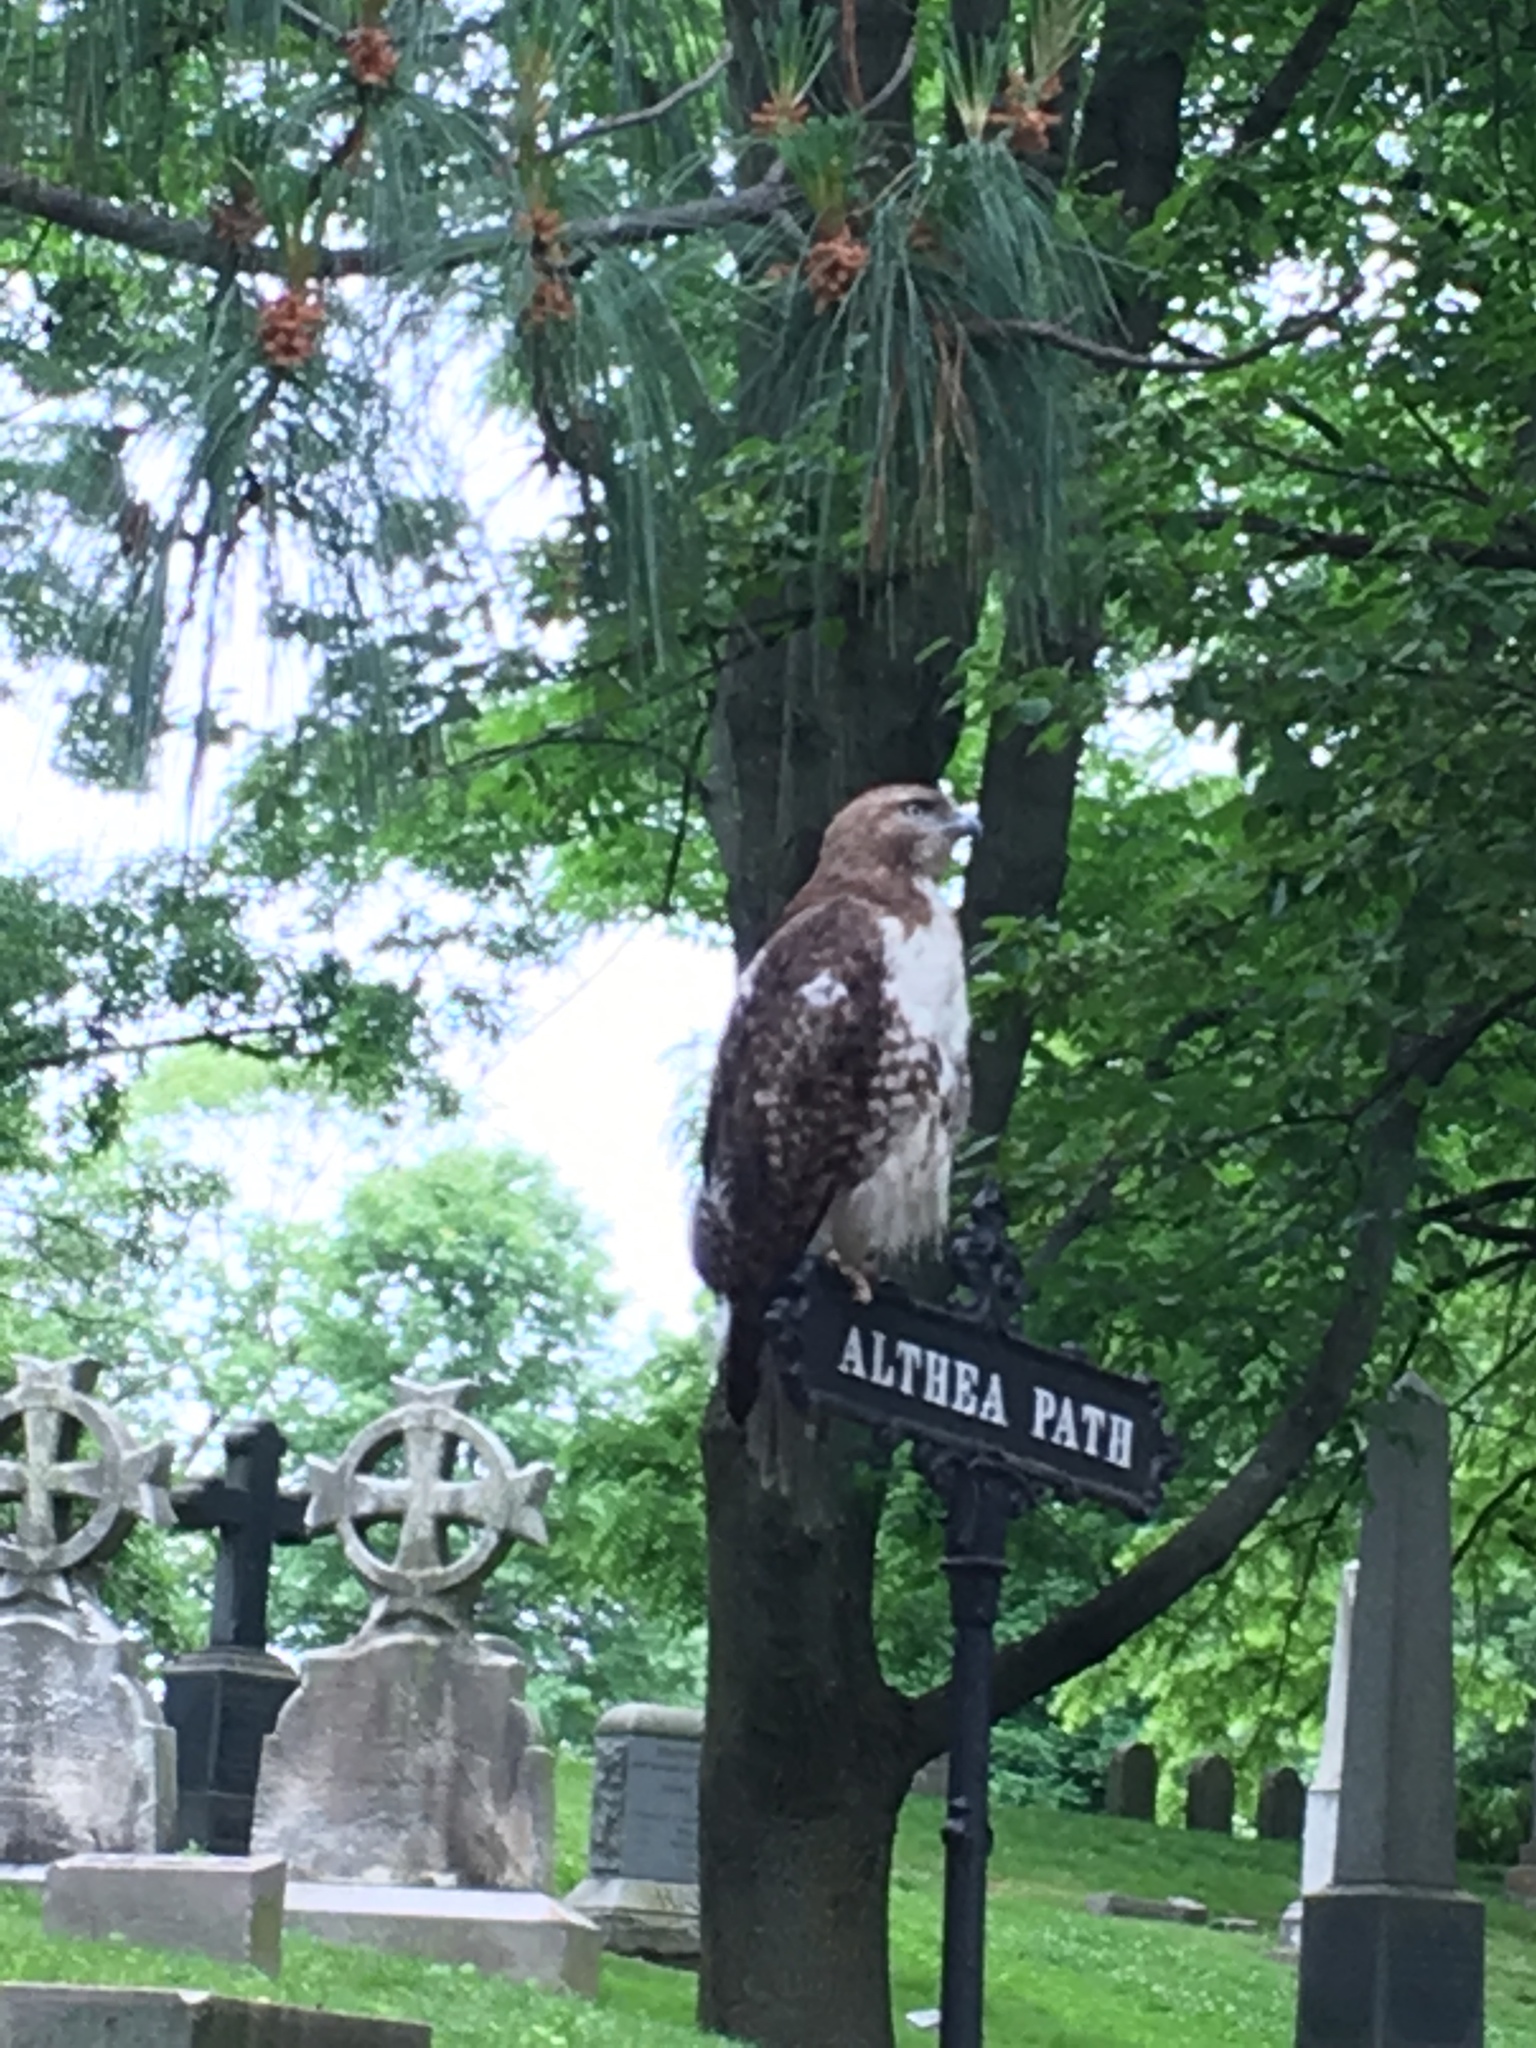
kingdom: Animalia
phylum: Chordata
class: Aves
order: Accipitriformes
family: Accipitridae
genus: Buteo
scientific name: Buteo jamaicensis
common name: Red-tailed hawk
